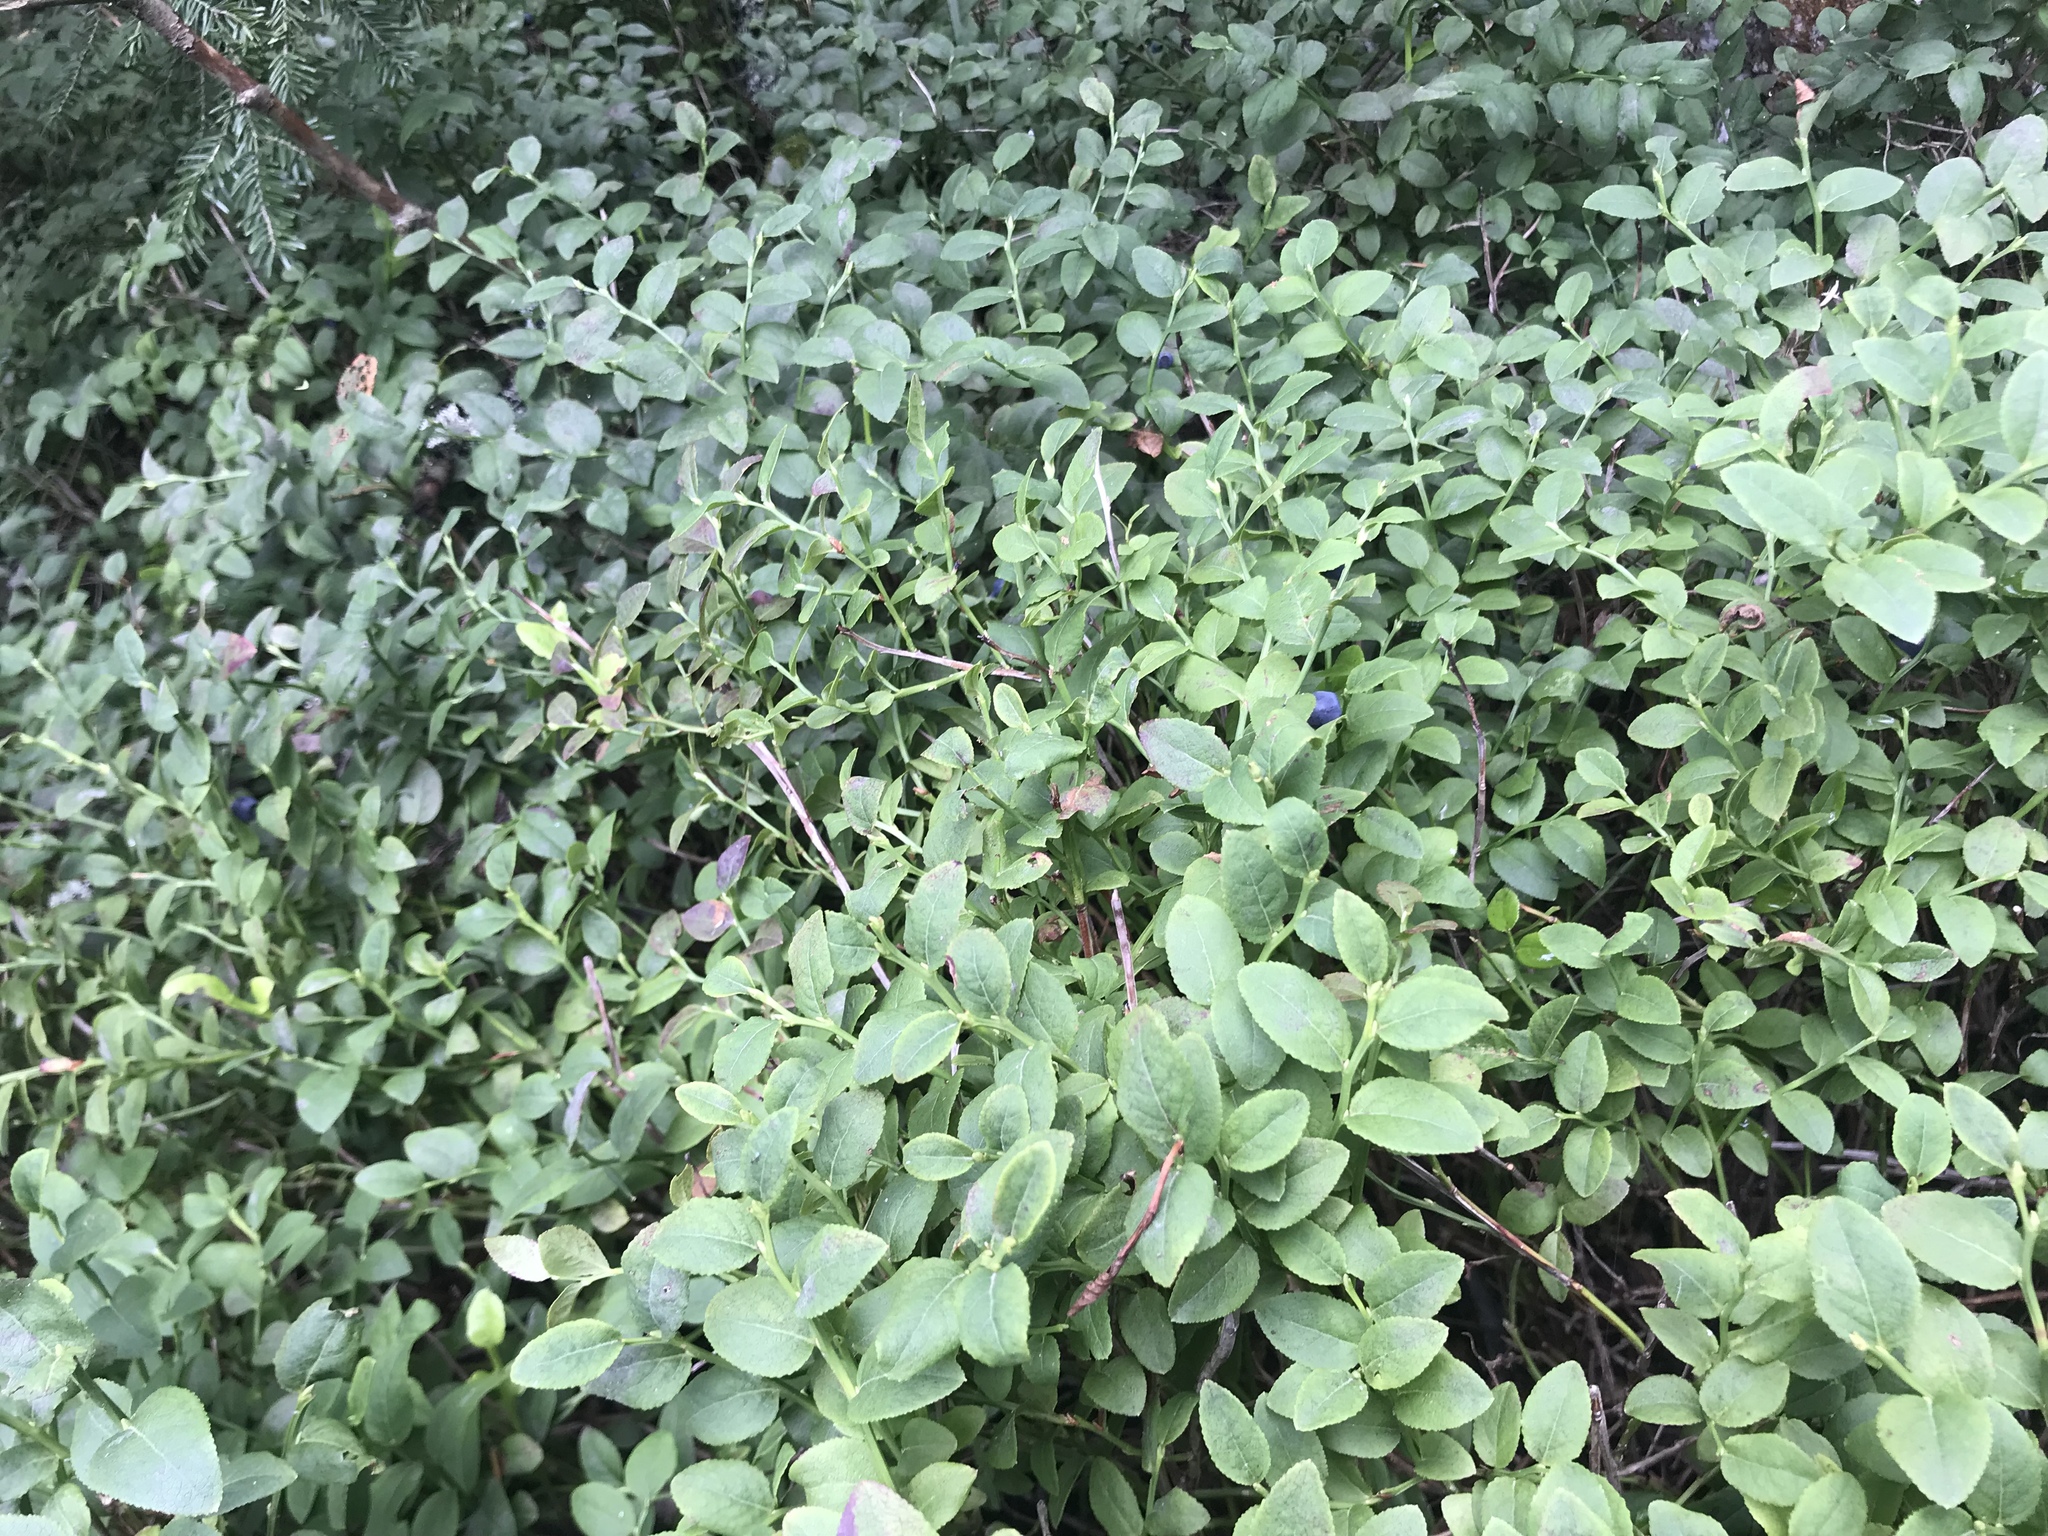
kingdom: Plantae
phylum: Tracheophyta
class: Magnoliopsida
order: Ericales
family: Ericaceae
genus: Vaccinium
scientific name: Vaccinium myrtillus
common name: Bilberry
